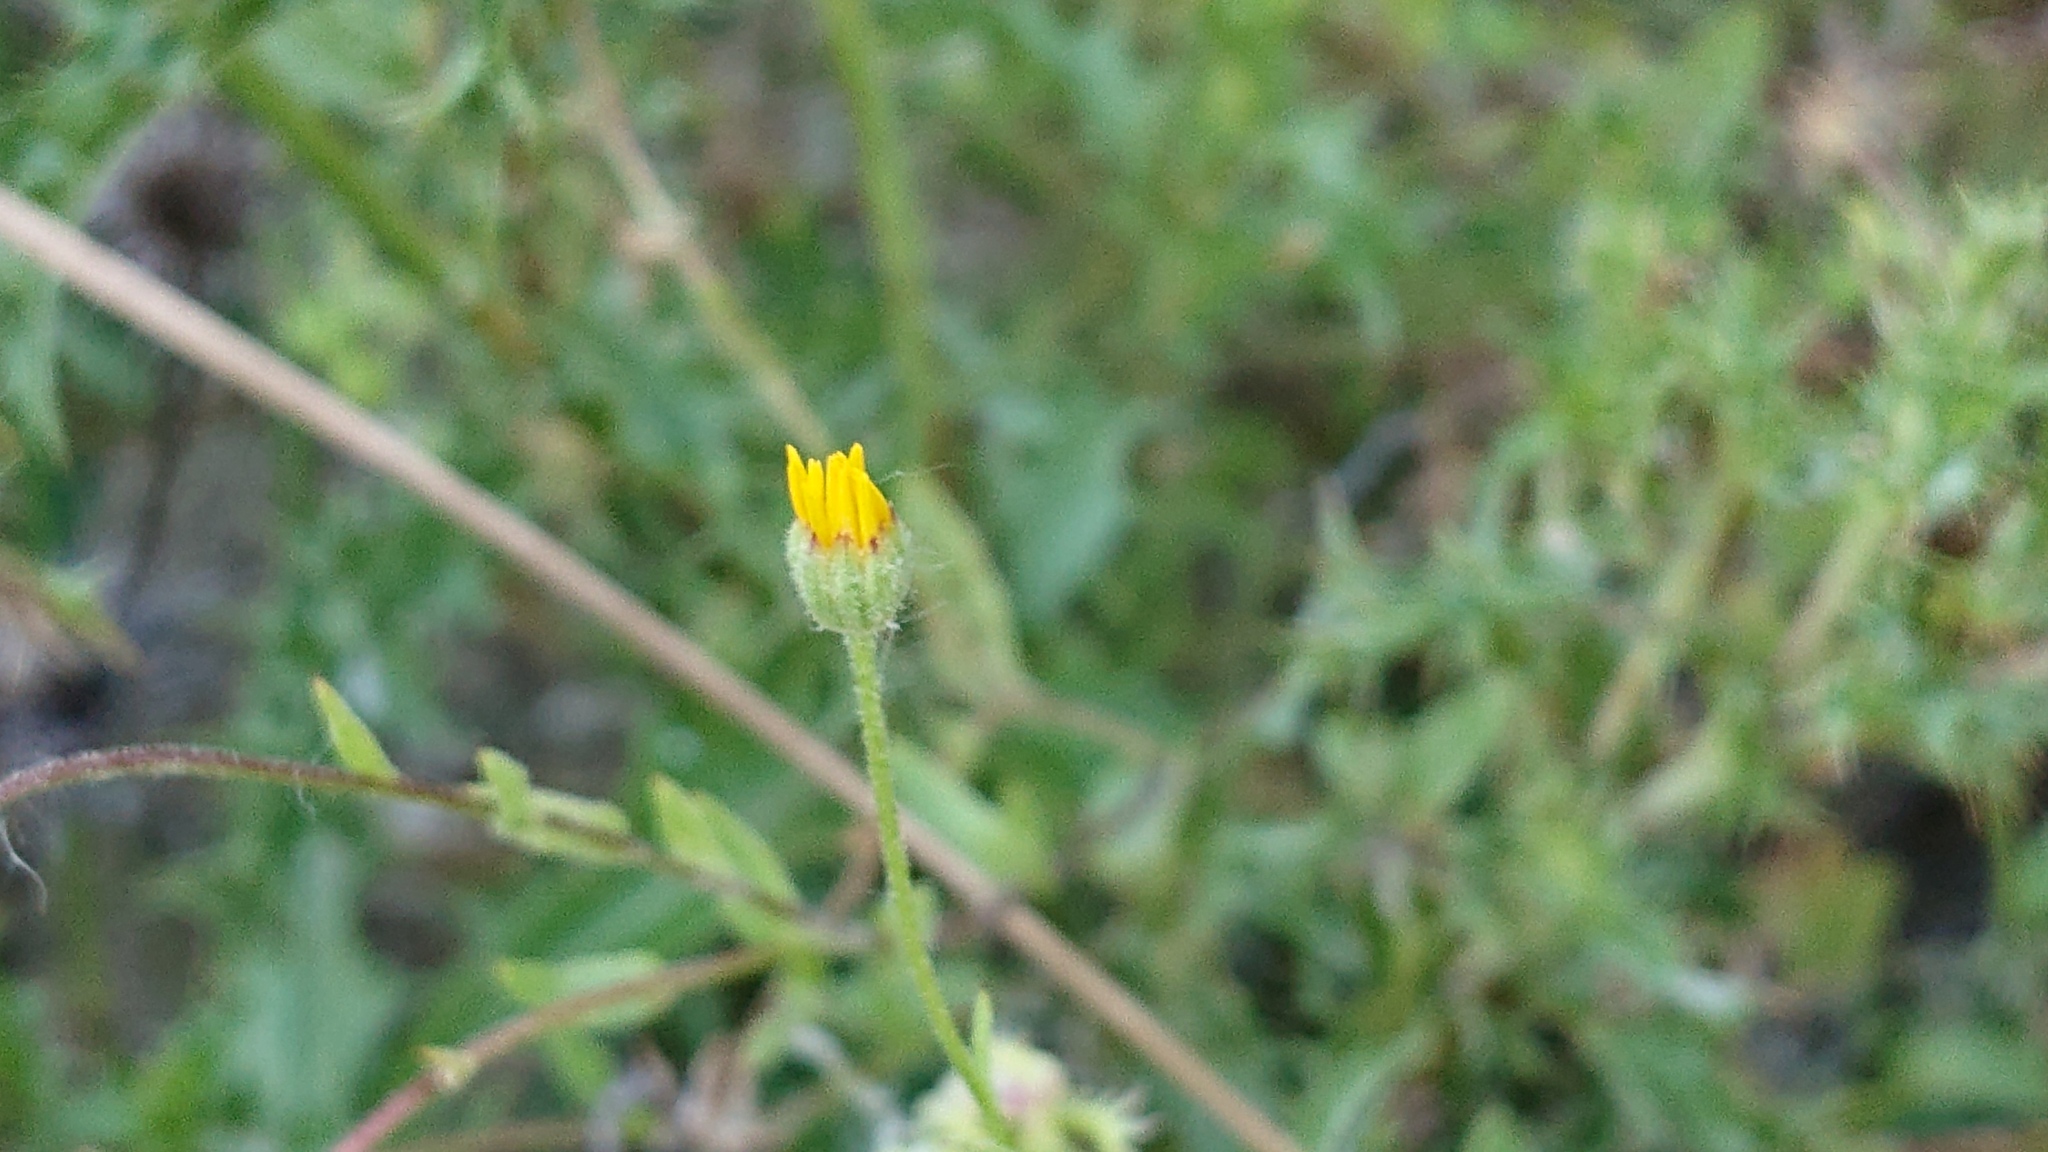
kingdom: Plantae
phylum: Tracheophyta
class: Magnoliopsida
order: Asterales
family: Asteraceae
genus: Calendula
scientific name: Calendula arvensis
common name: Field marigold
